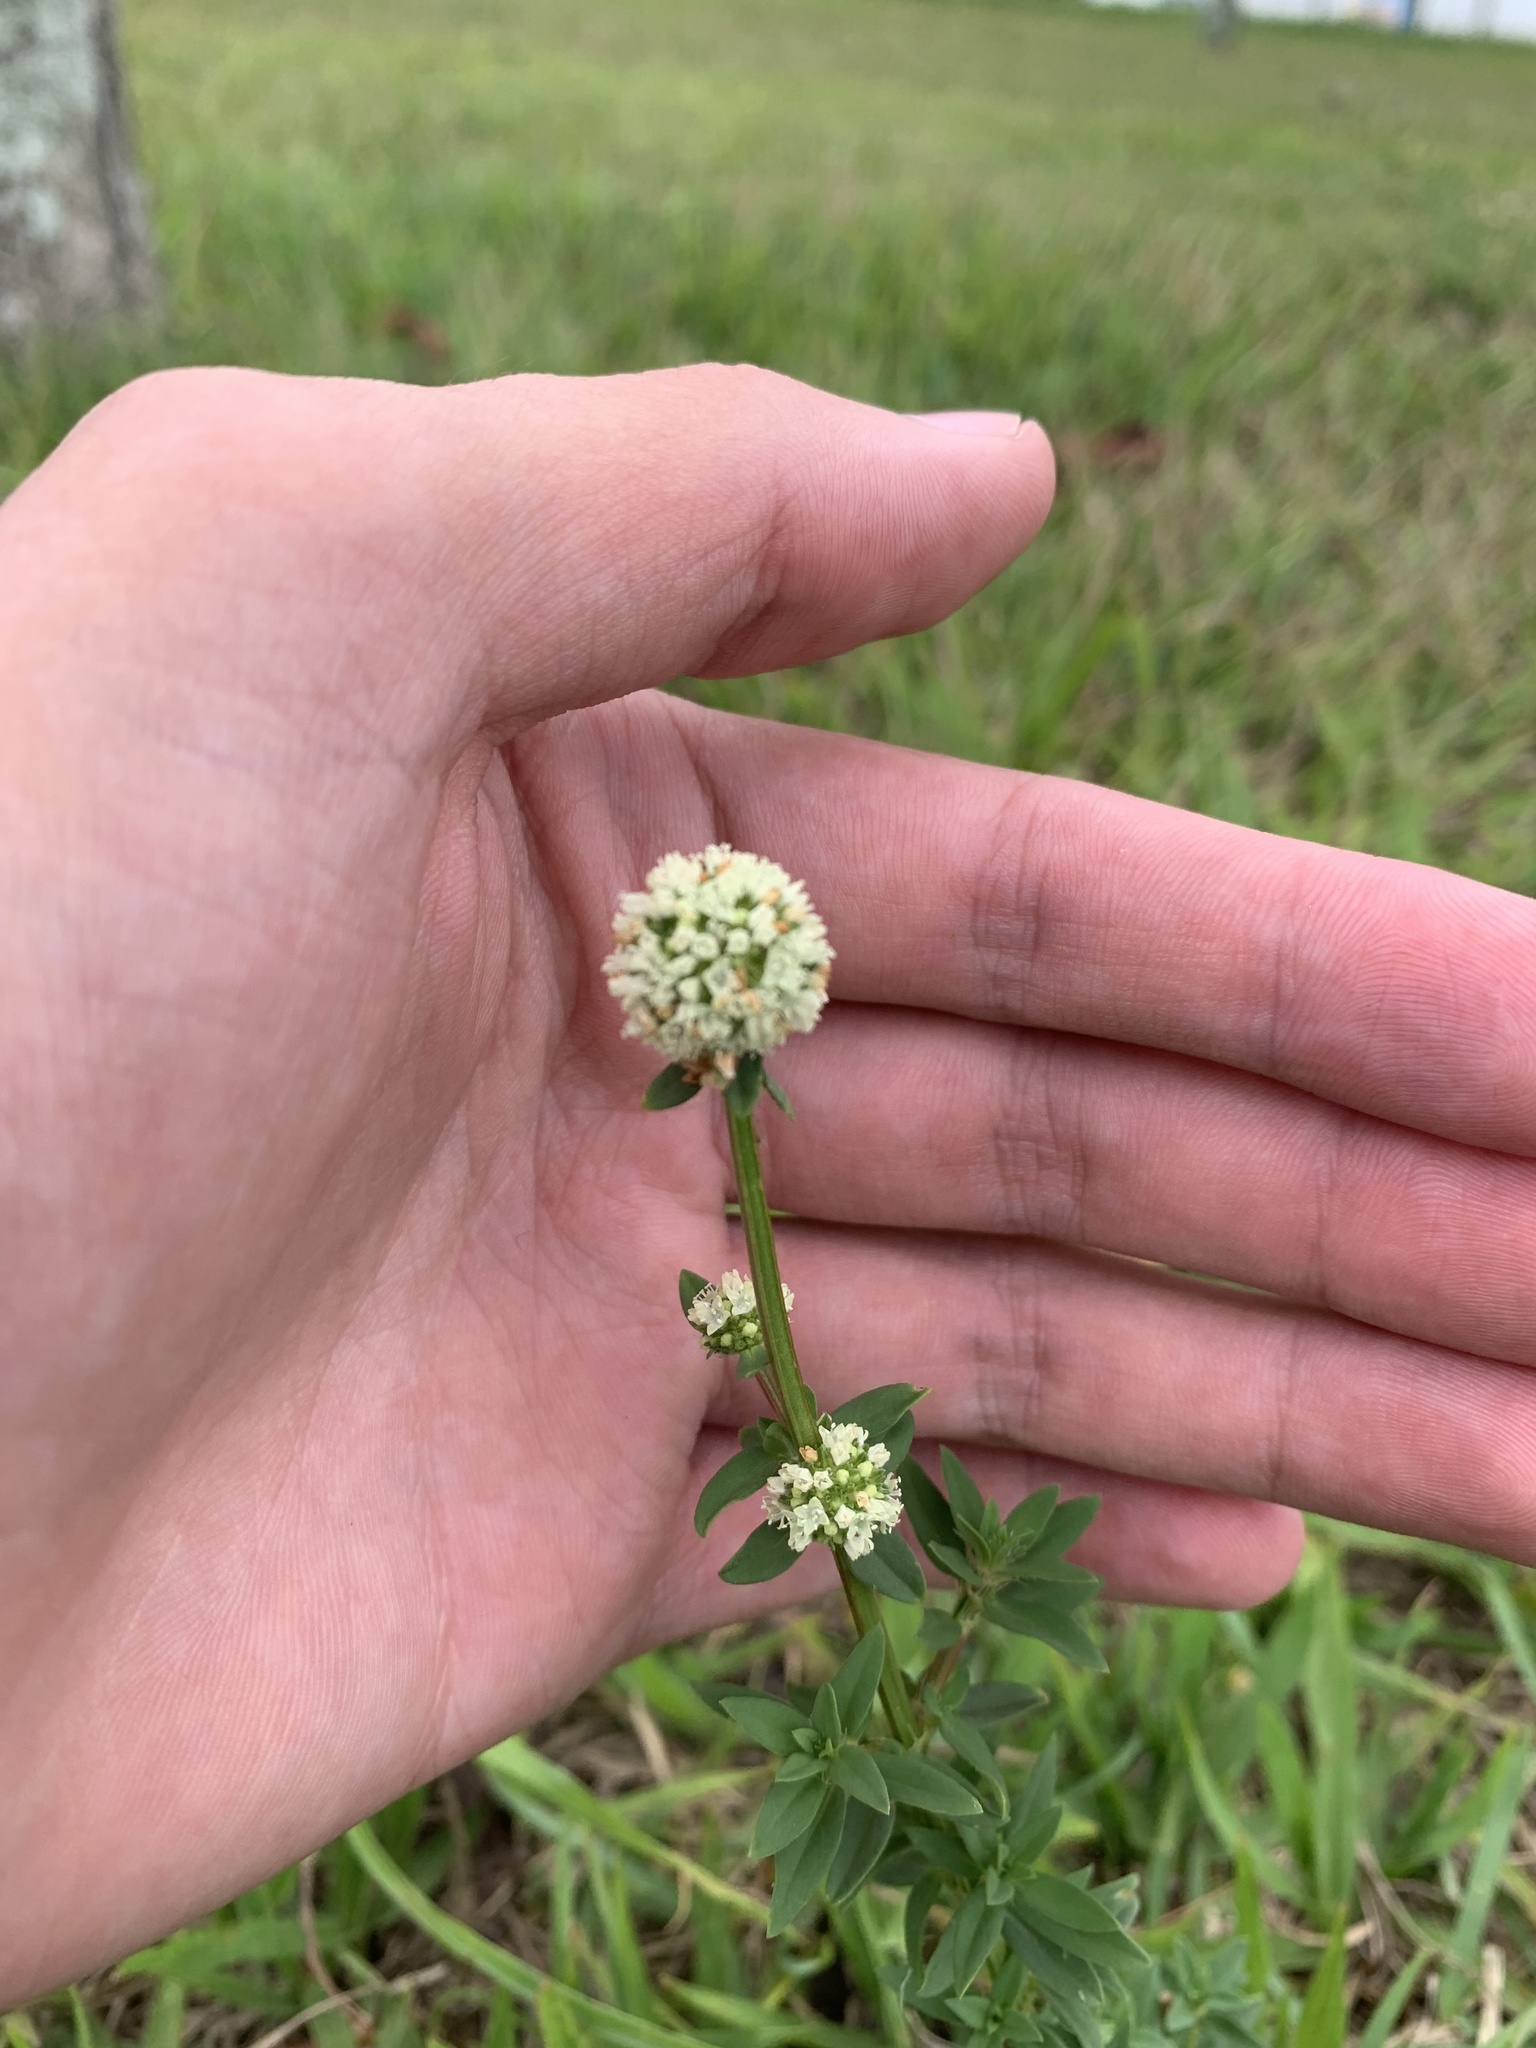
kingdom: Plantae
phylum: Tracheophyta
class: Magnoliopsida
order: Gentianales
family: Rubiaceae
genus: Spermacoce
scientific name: Spermacoce verticillata
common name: Shrubby false buttonweed
